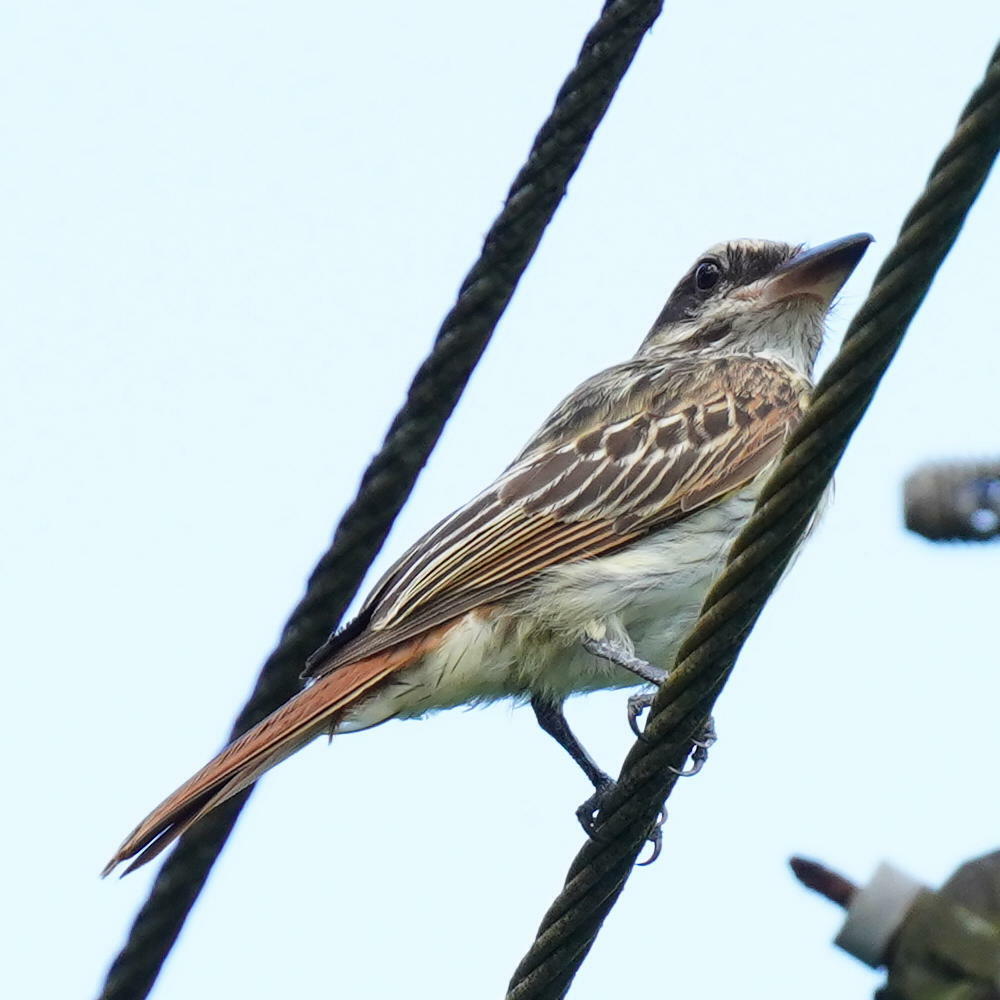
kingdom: Animalia
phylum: Chordata
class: Aves
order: Passeriformes
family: Tyrannidae
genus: Myiodynastes
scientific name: Myiodynastes maculatus
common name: Streaked flycatcher
